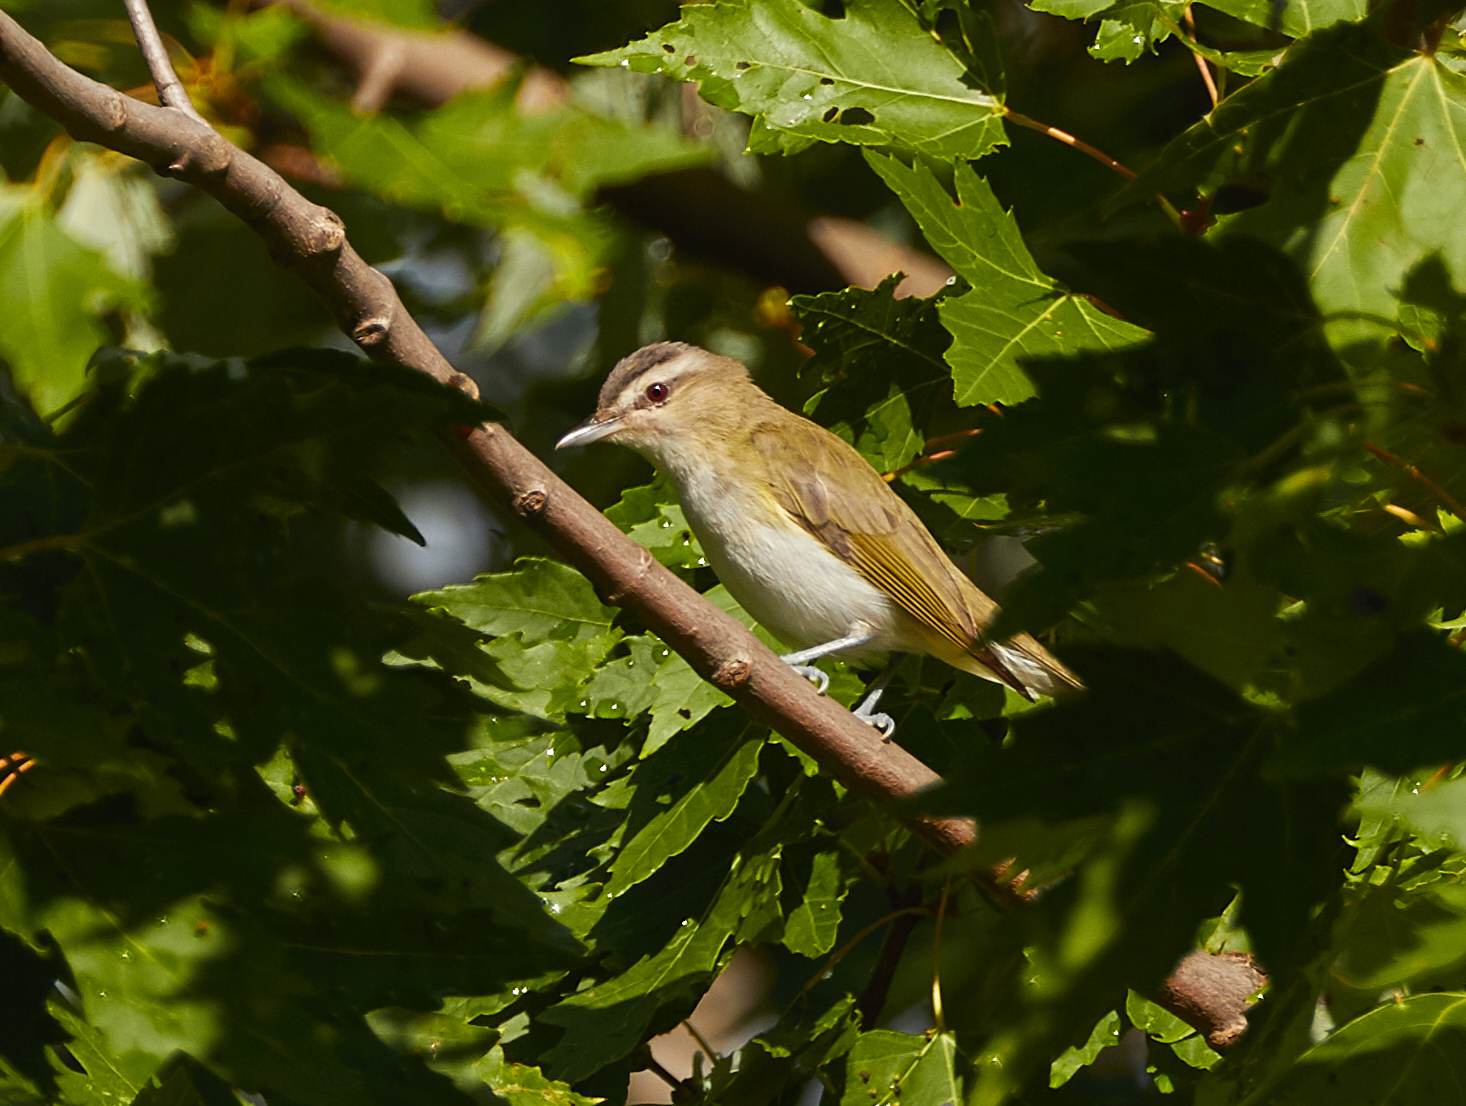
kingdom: Animalia
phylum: Chordata
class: Aves
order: Passeriformes
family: Vireonidae
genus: Vireo
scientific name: Vireo olivaceus
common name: Red-eyed vireo
